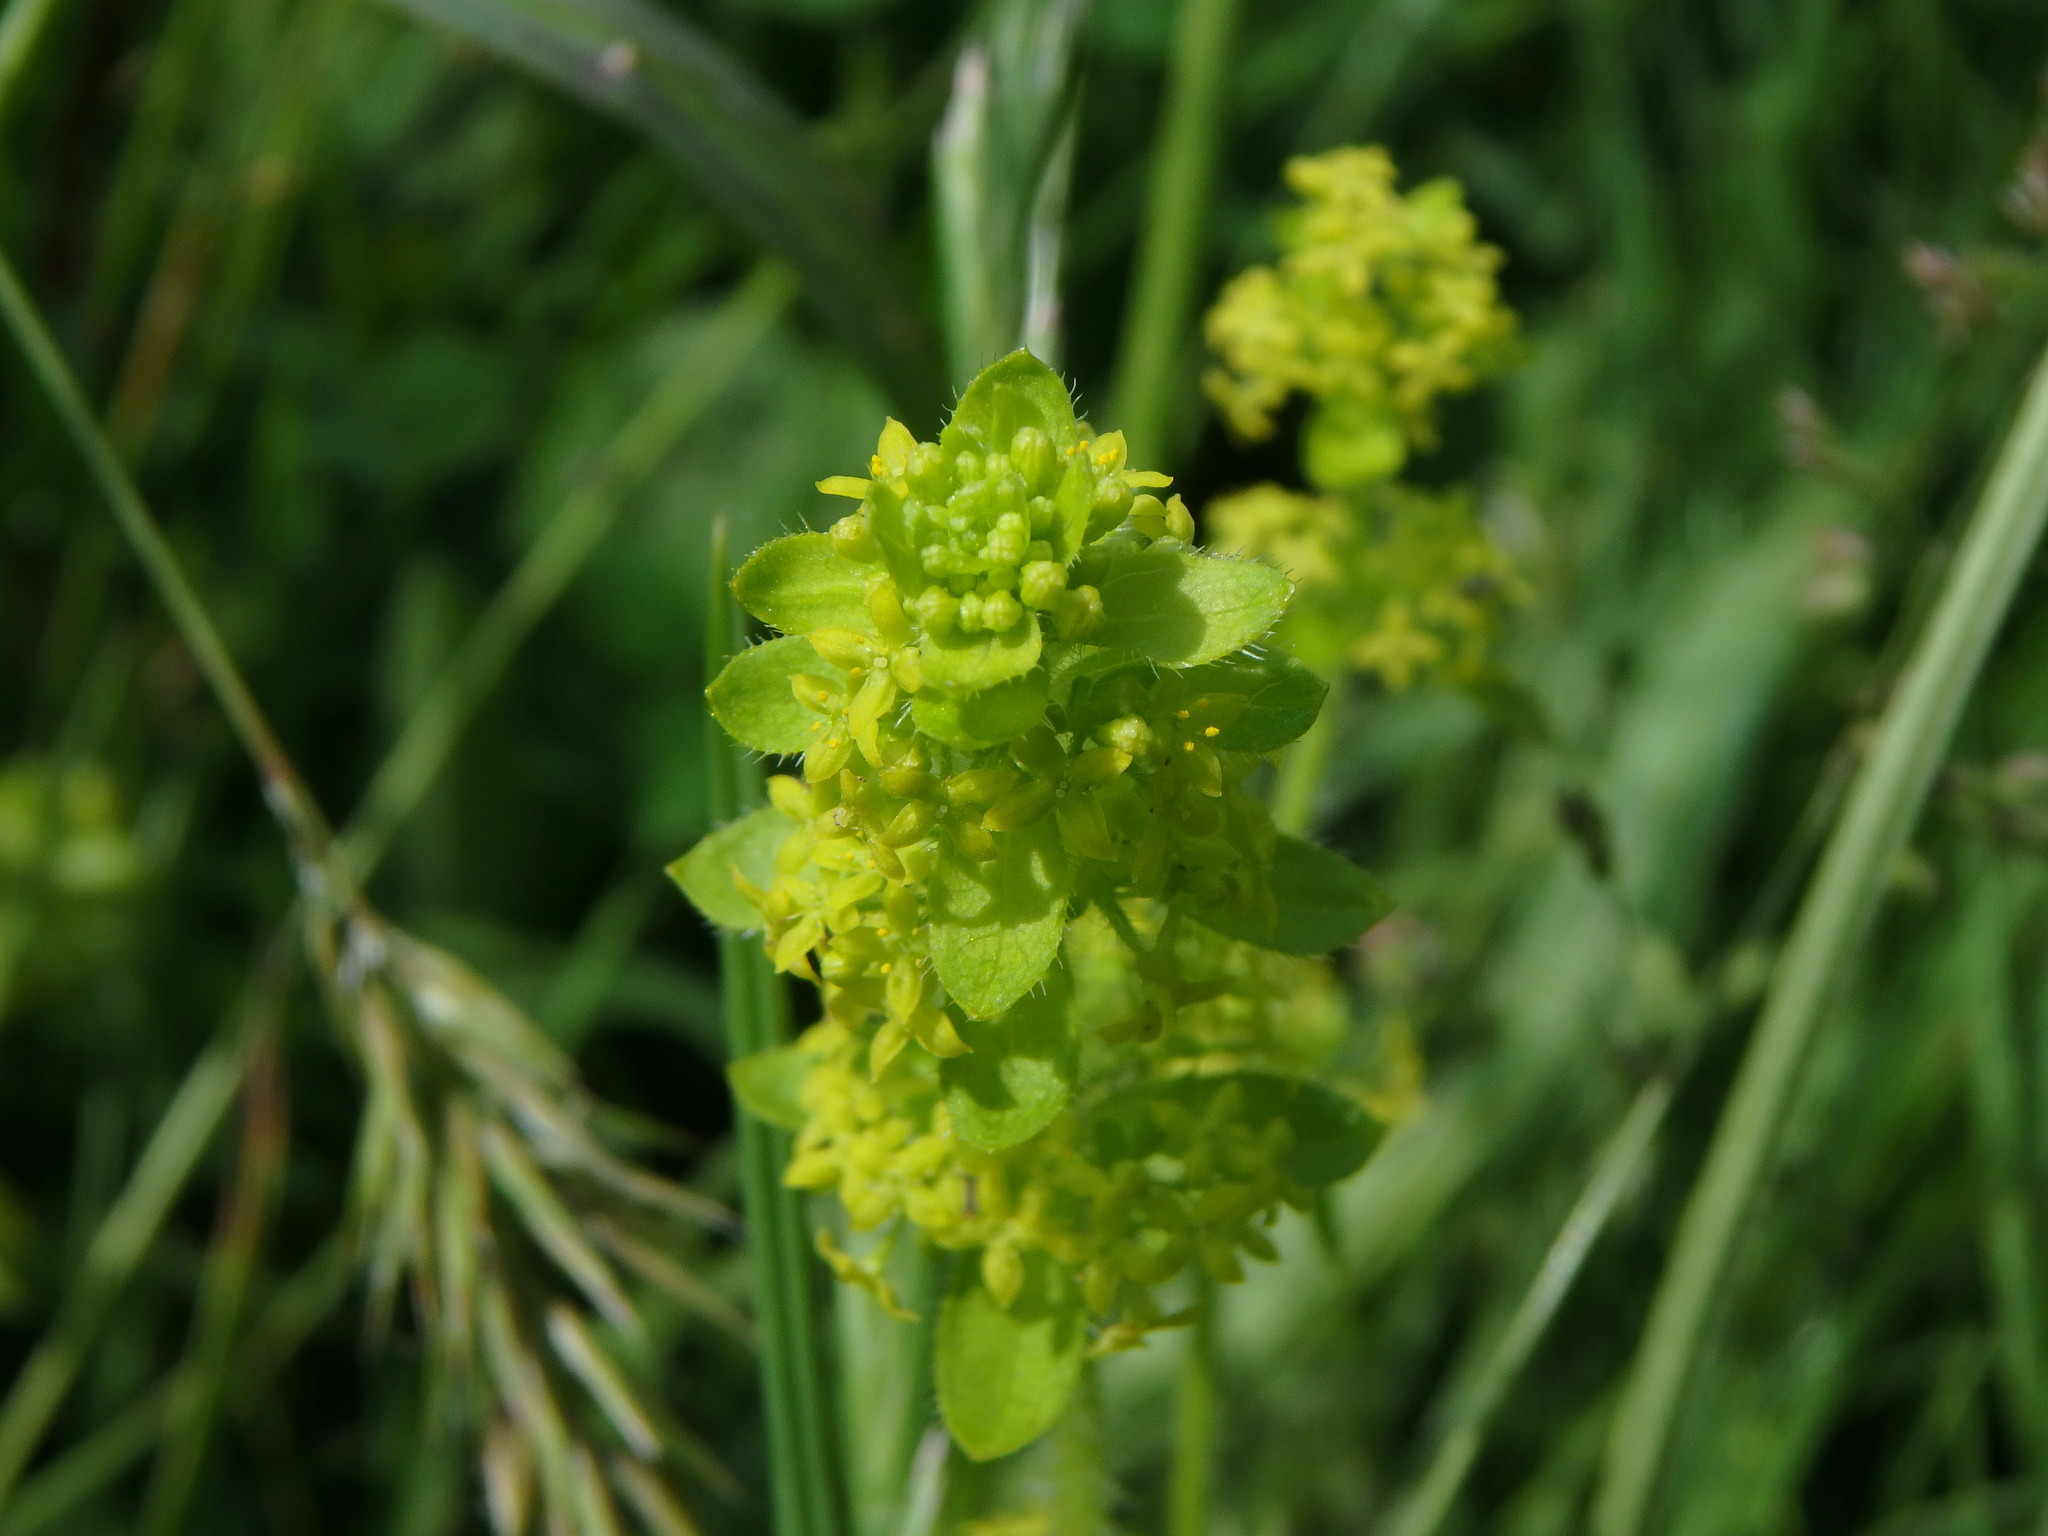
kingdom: Plantae
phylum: Tracheophyta
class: Magnoliopsida
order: Gentianales
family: Rubiaceae
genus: Cruciata
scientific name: Cruciata laevipes
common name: Crosswort
